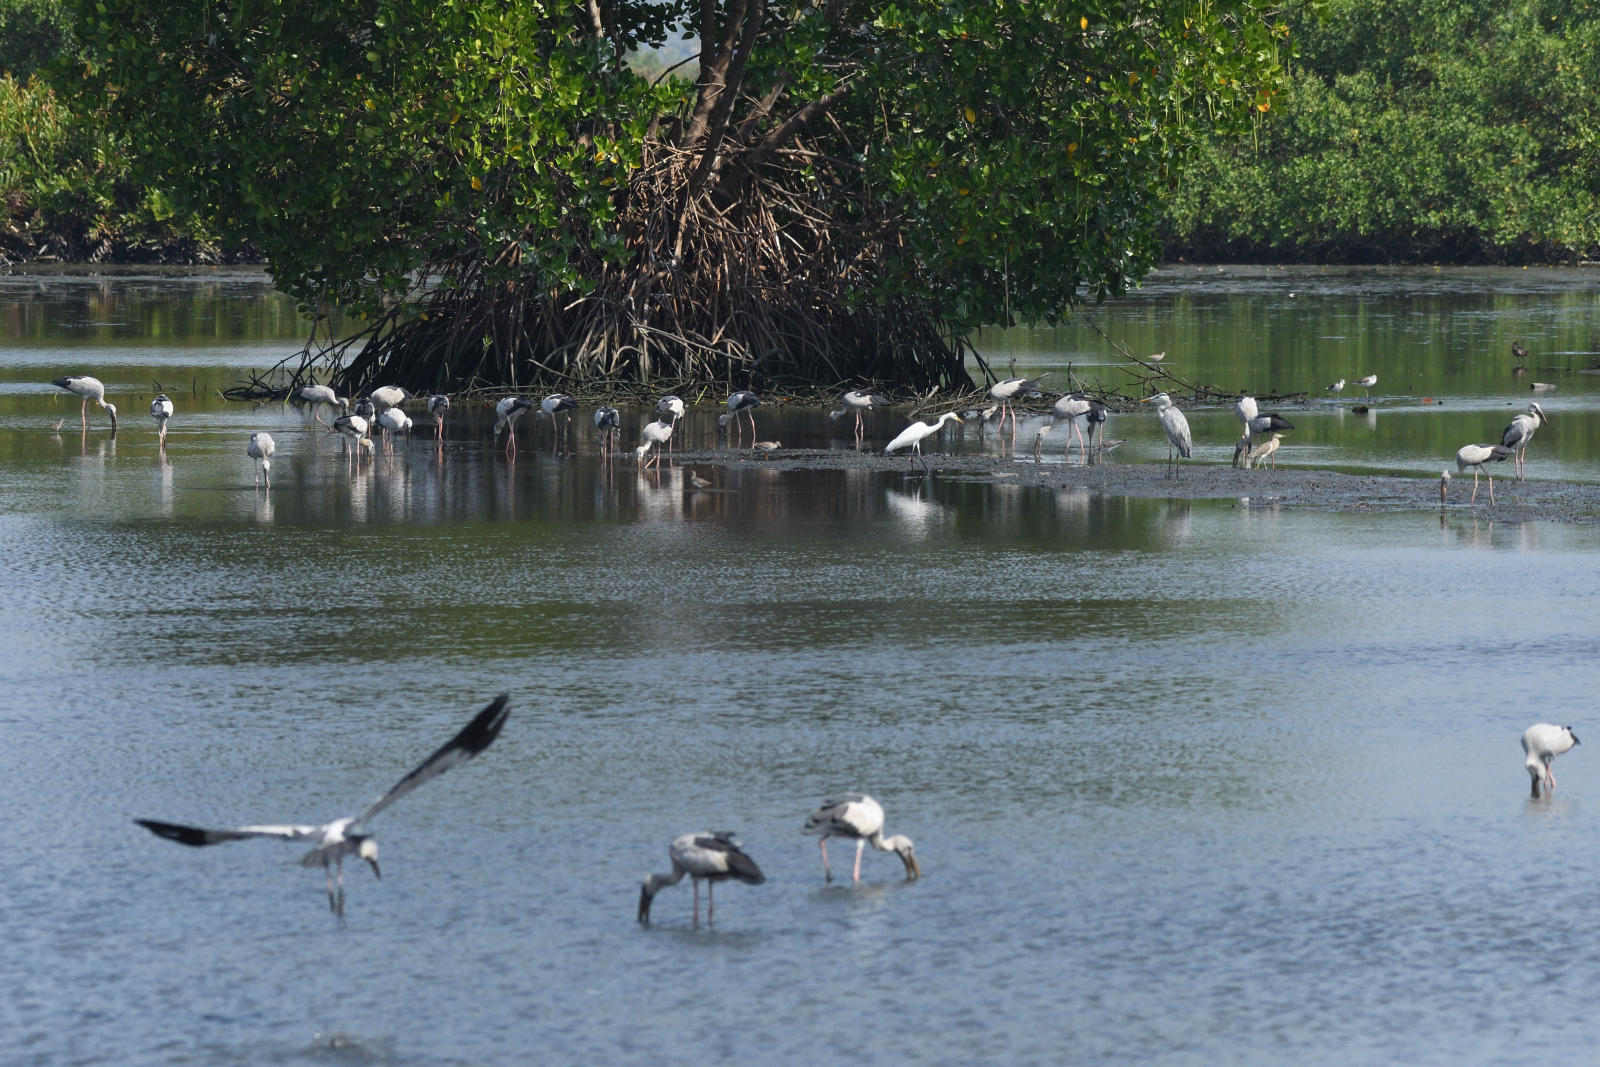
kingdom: Animalia
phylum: Chordata
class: Aves
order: Ciconiiformes
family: Ciconiidae
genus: Anastomus
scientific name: Anastomus oscitans
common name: Asian openbill
